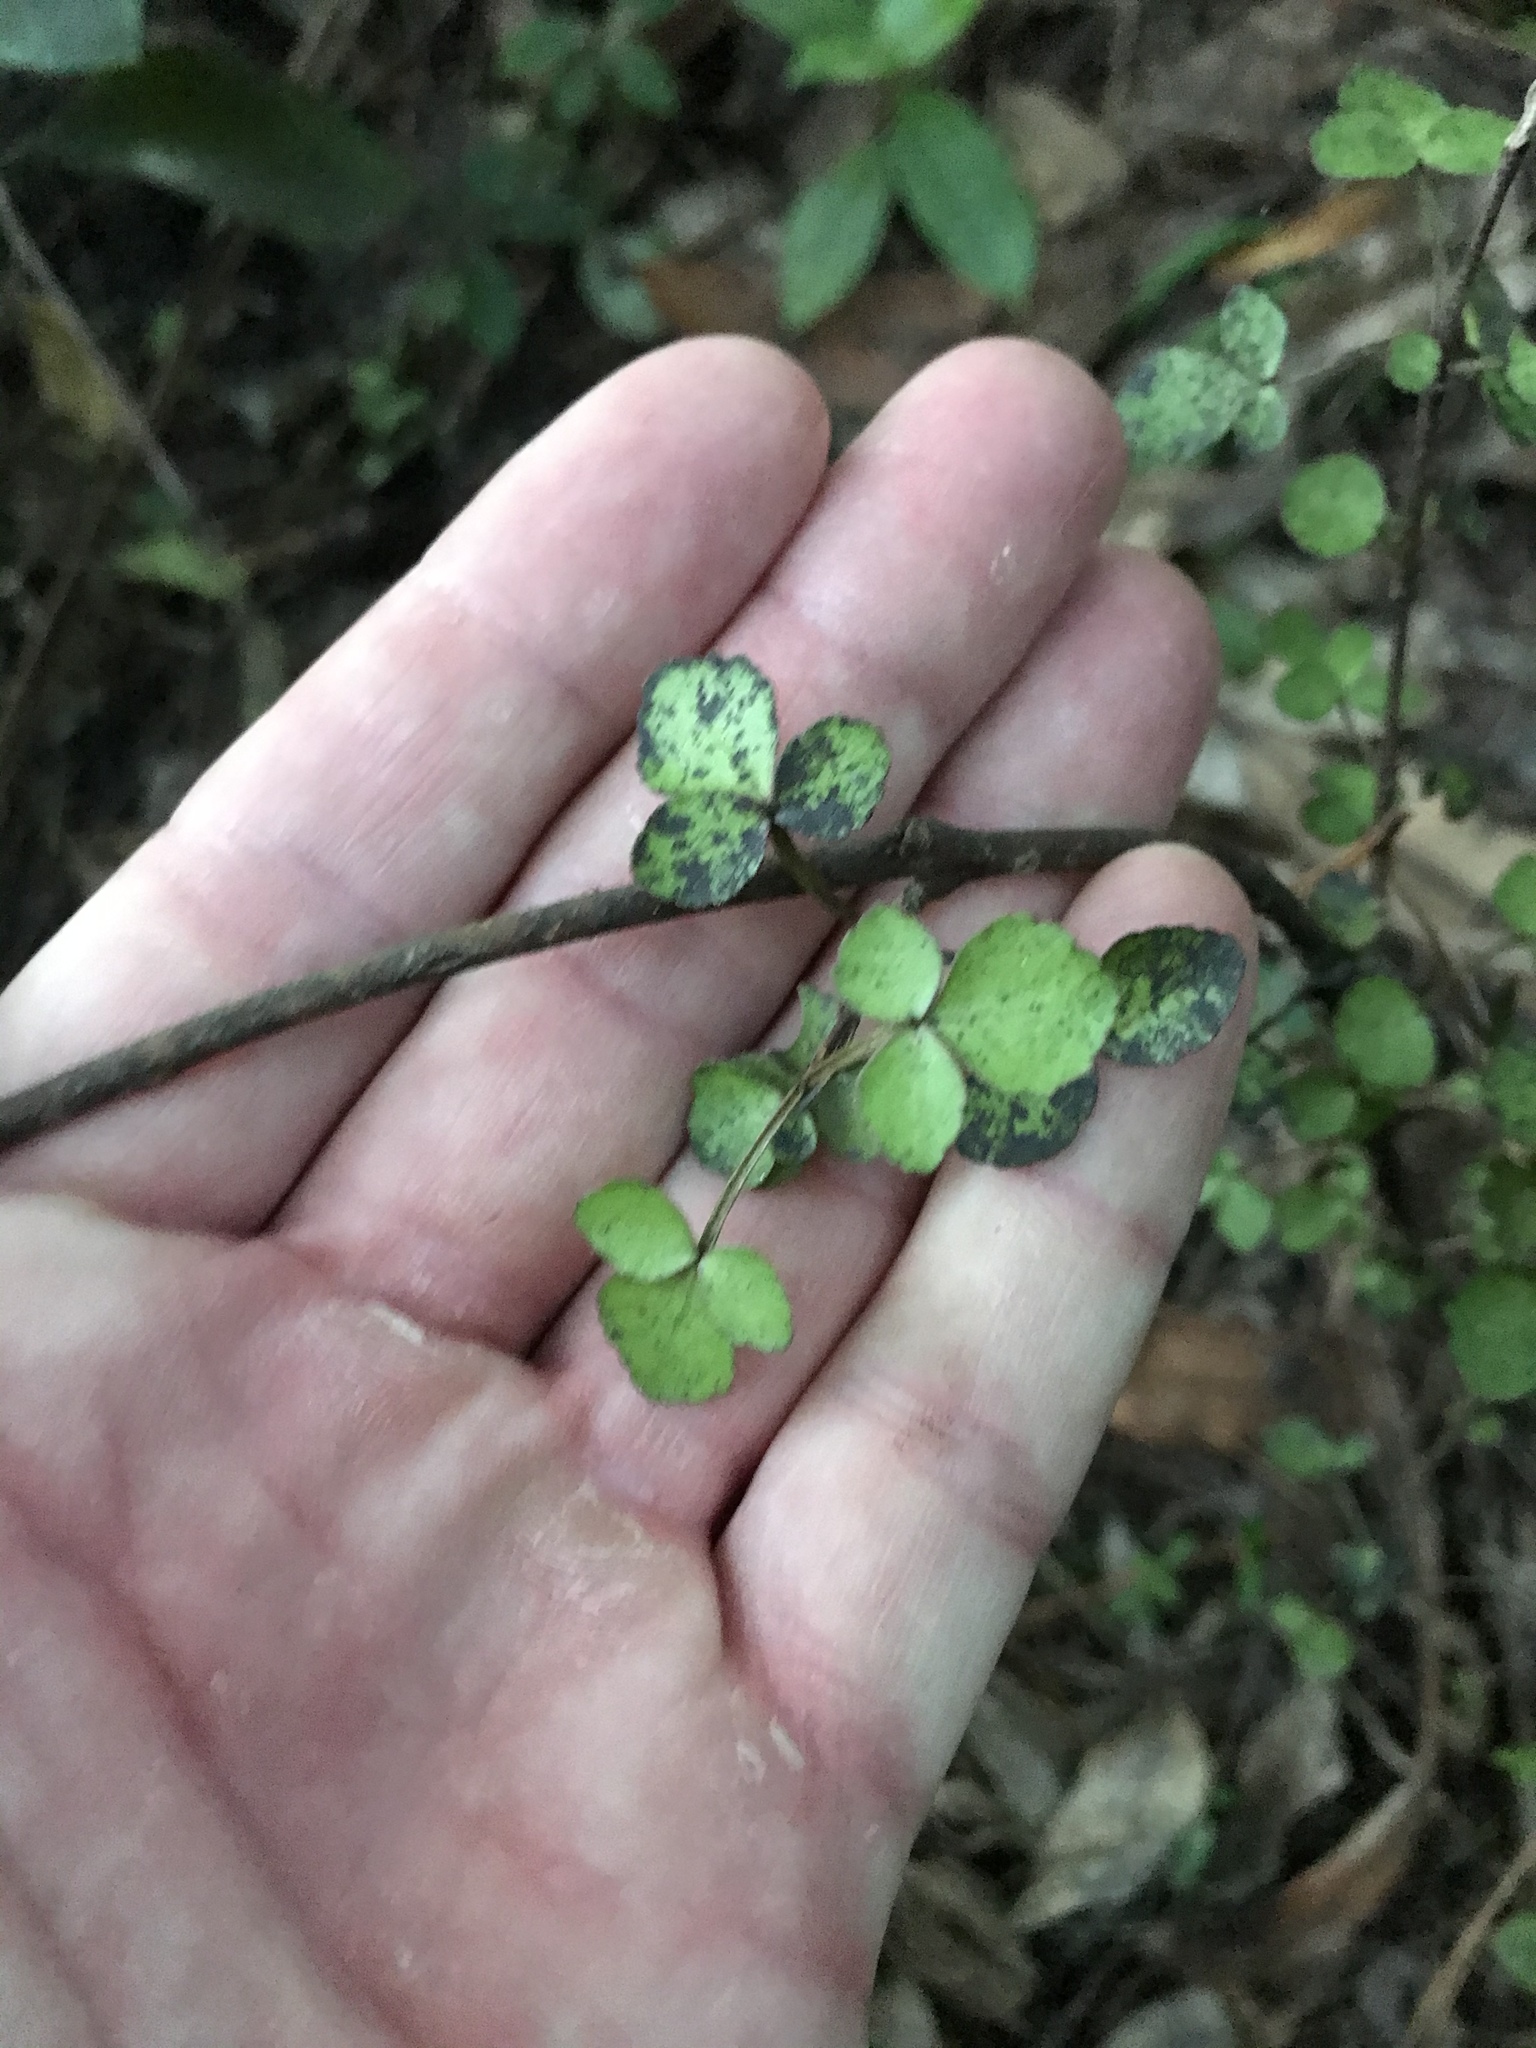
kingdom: Plantae
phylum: Tracheophyta
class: Magnoliopsida
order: Sapindales
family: Rutaceae
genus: Melicope
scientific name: Melicope simplex
